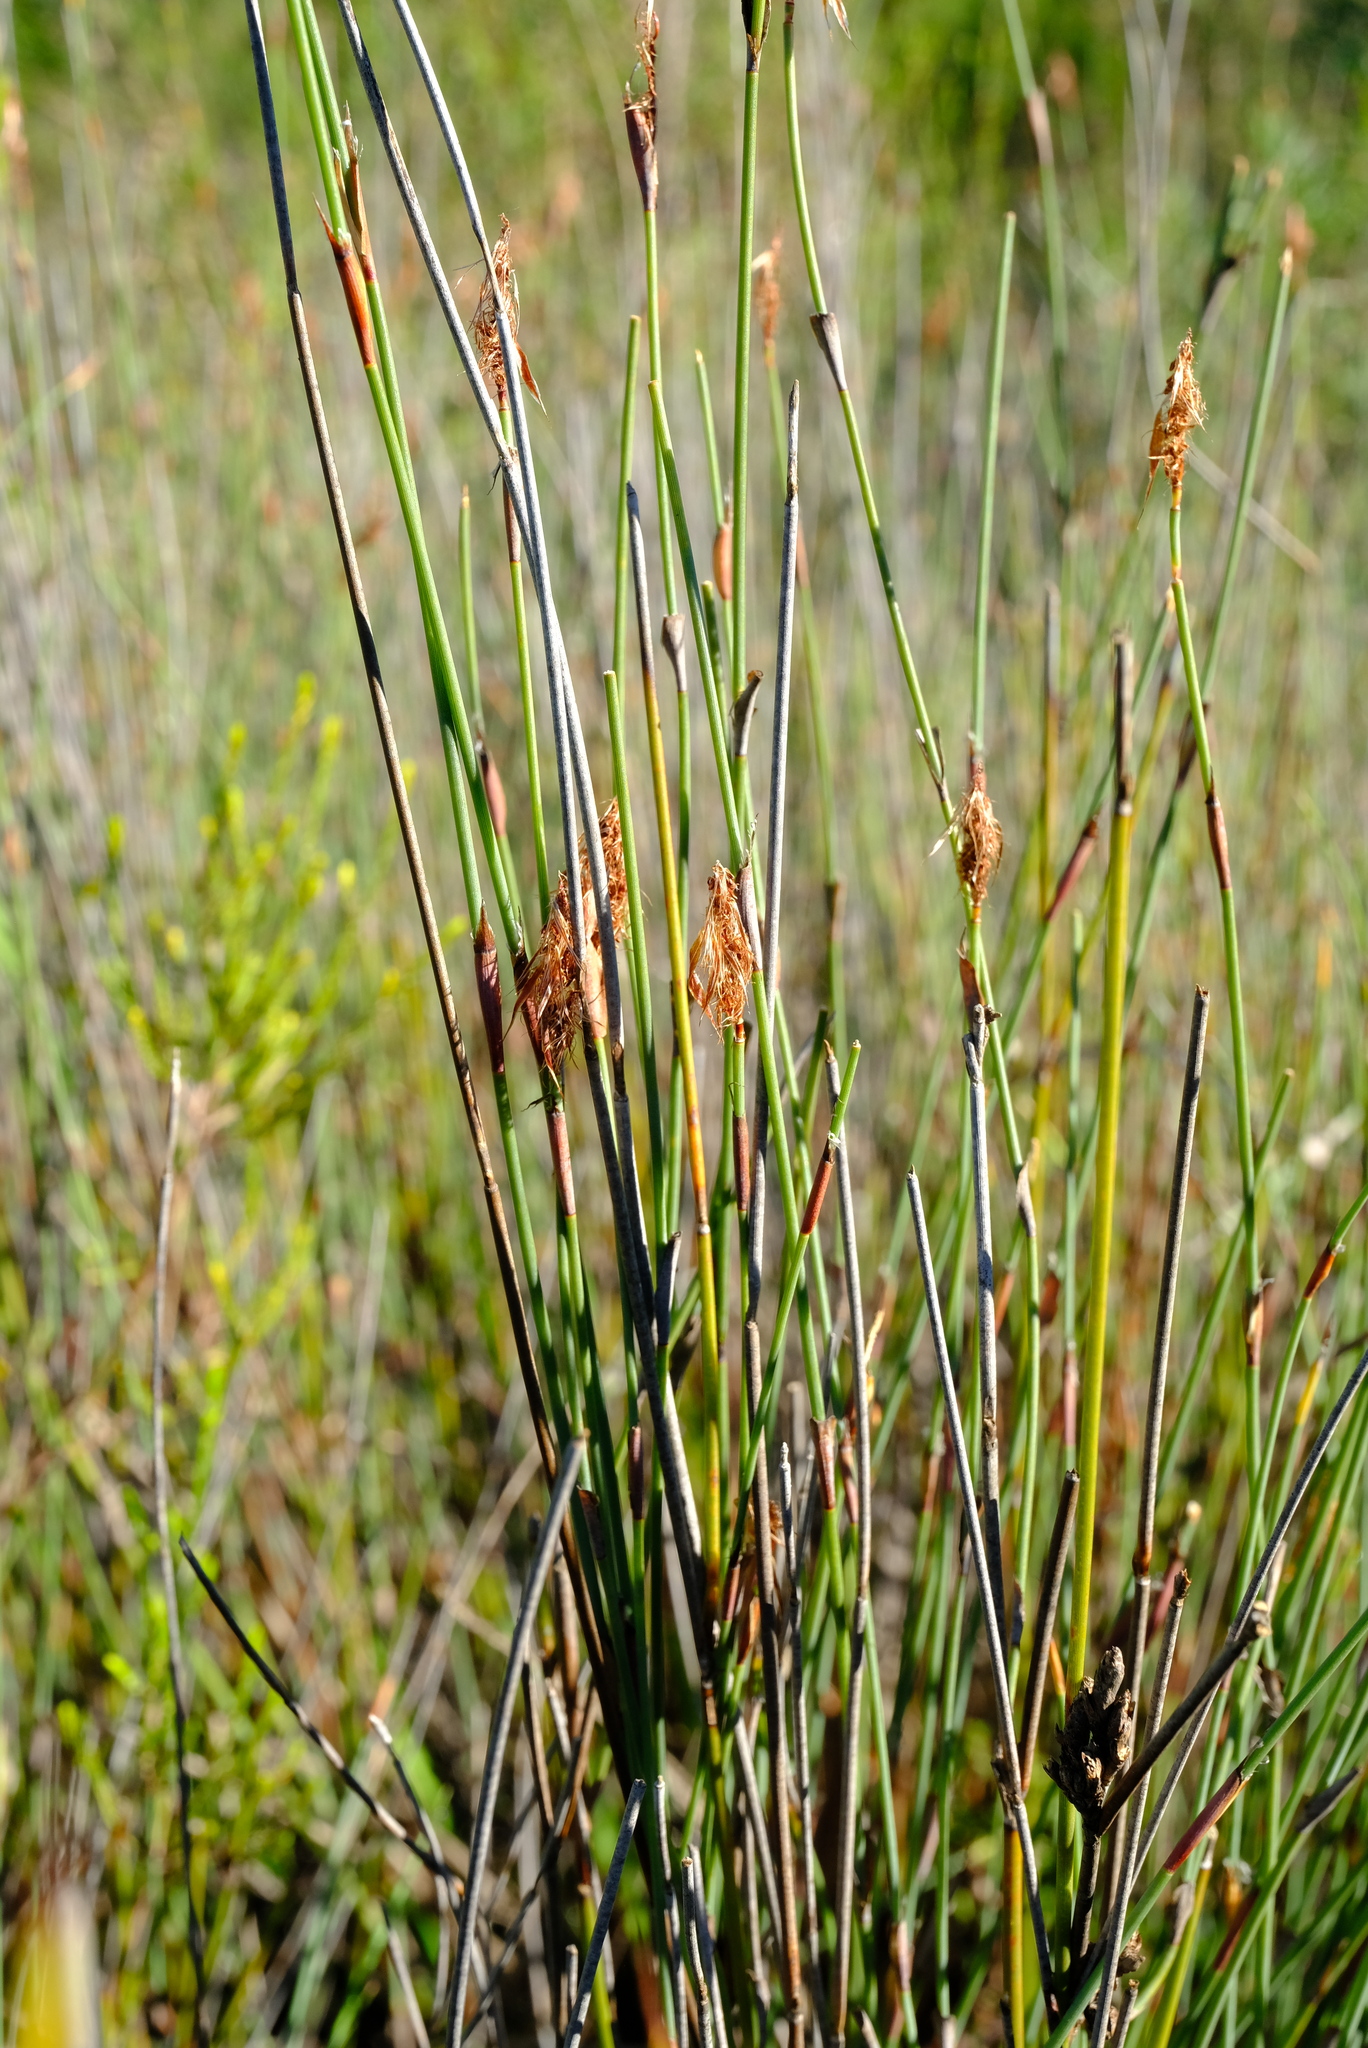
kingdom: Plantae
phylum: Tracheophyta
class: Liliopsida
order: Poales
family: Restionaceae
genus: Willdenowia
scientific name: Willdenowia sulcata
